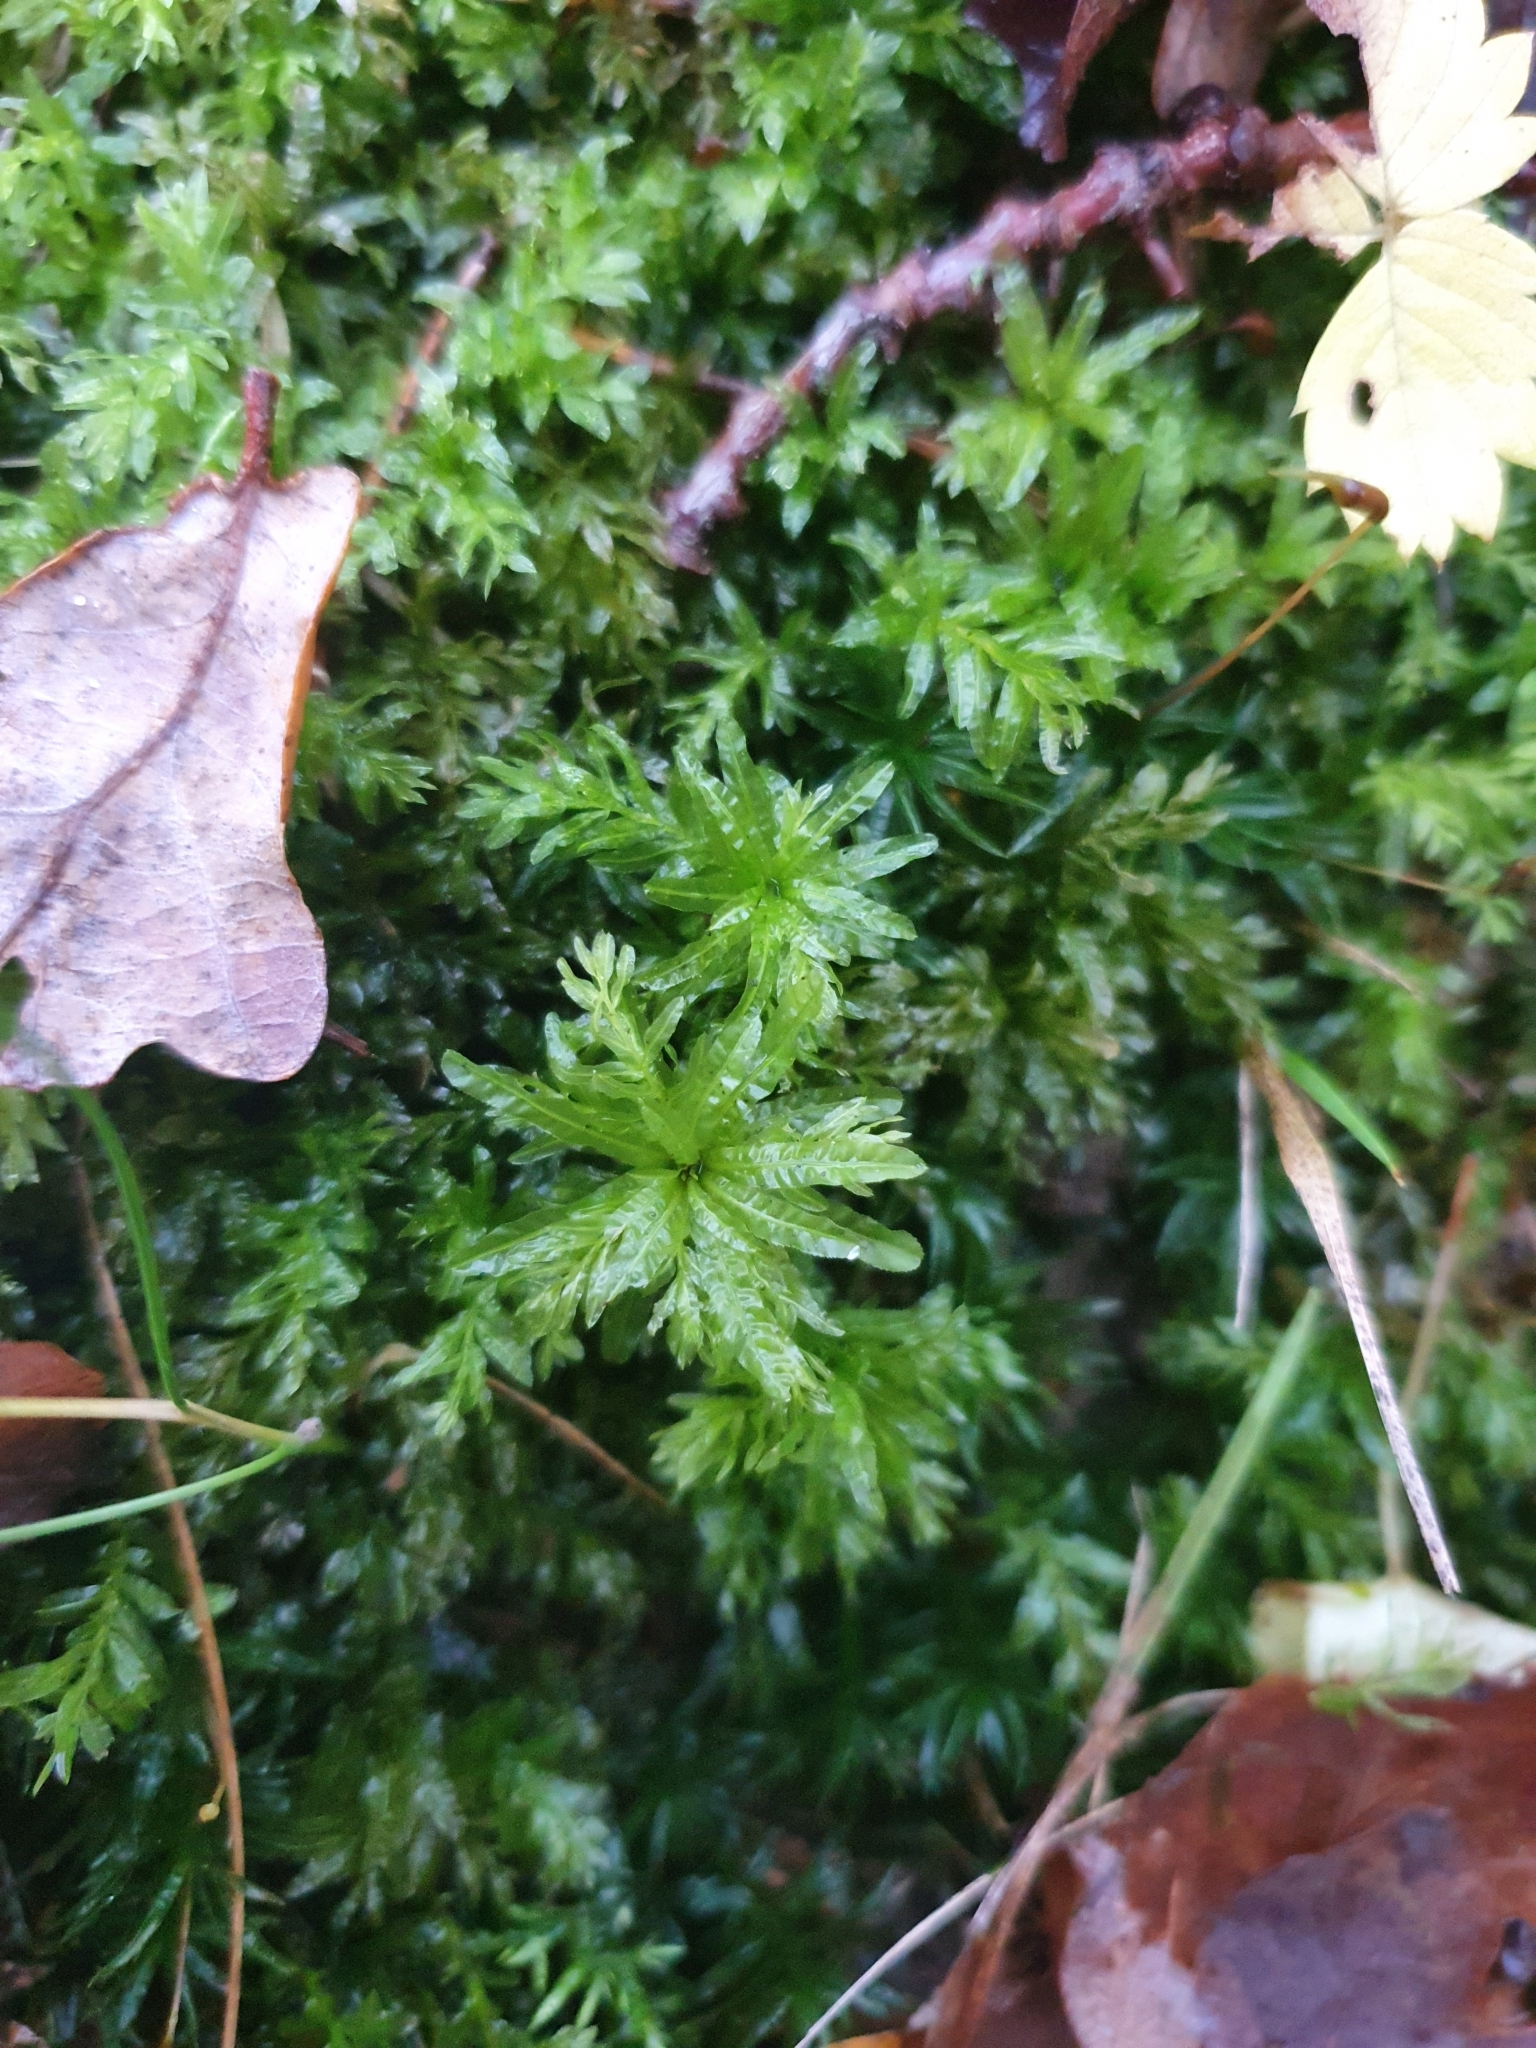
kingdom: Plantae
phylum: Bryophyta
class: Bryopsida
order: Bryales
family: Mniaceae
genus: Plagiomnium
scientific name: Plagiomnium undulatum
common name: Hart's-tongue thyme-moss
